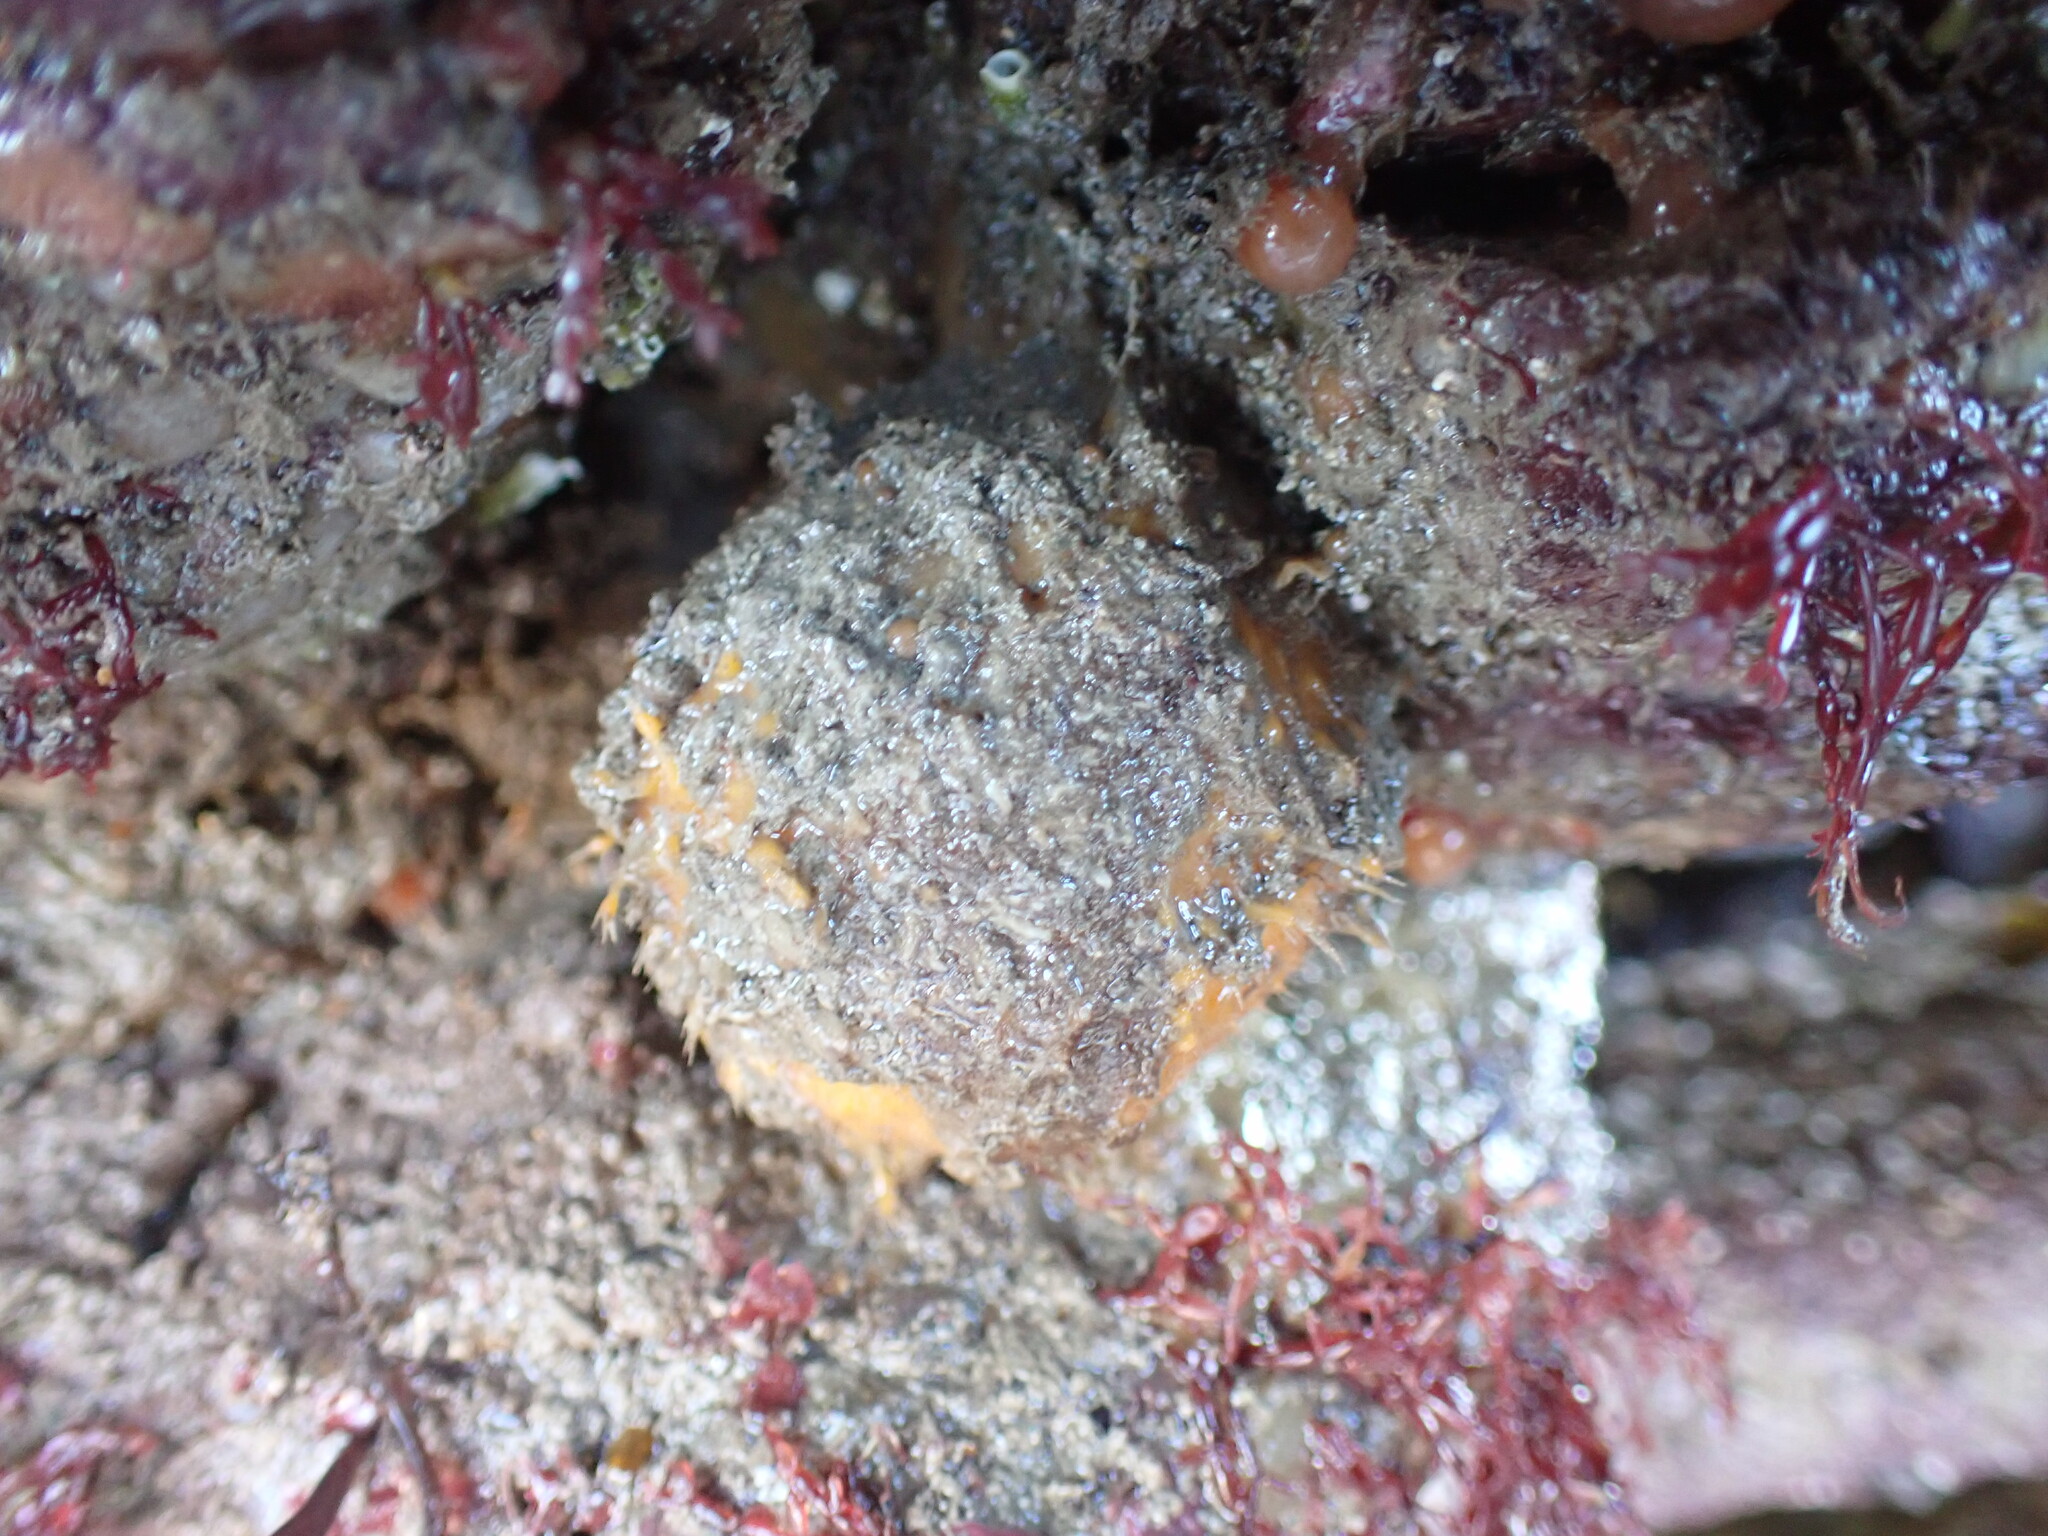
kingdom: Animalia
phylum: Porifera
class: Demospongiae
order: Tethyida
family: Tethyidae
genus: Tethya
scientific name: Tethya citrina
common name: Sea lemon
